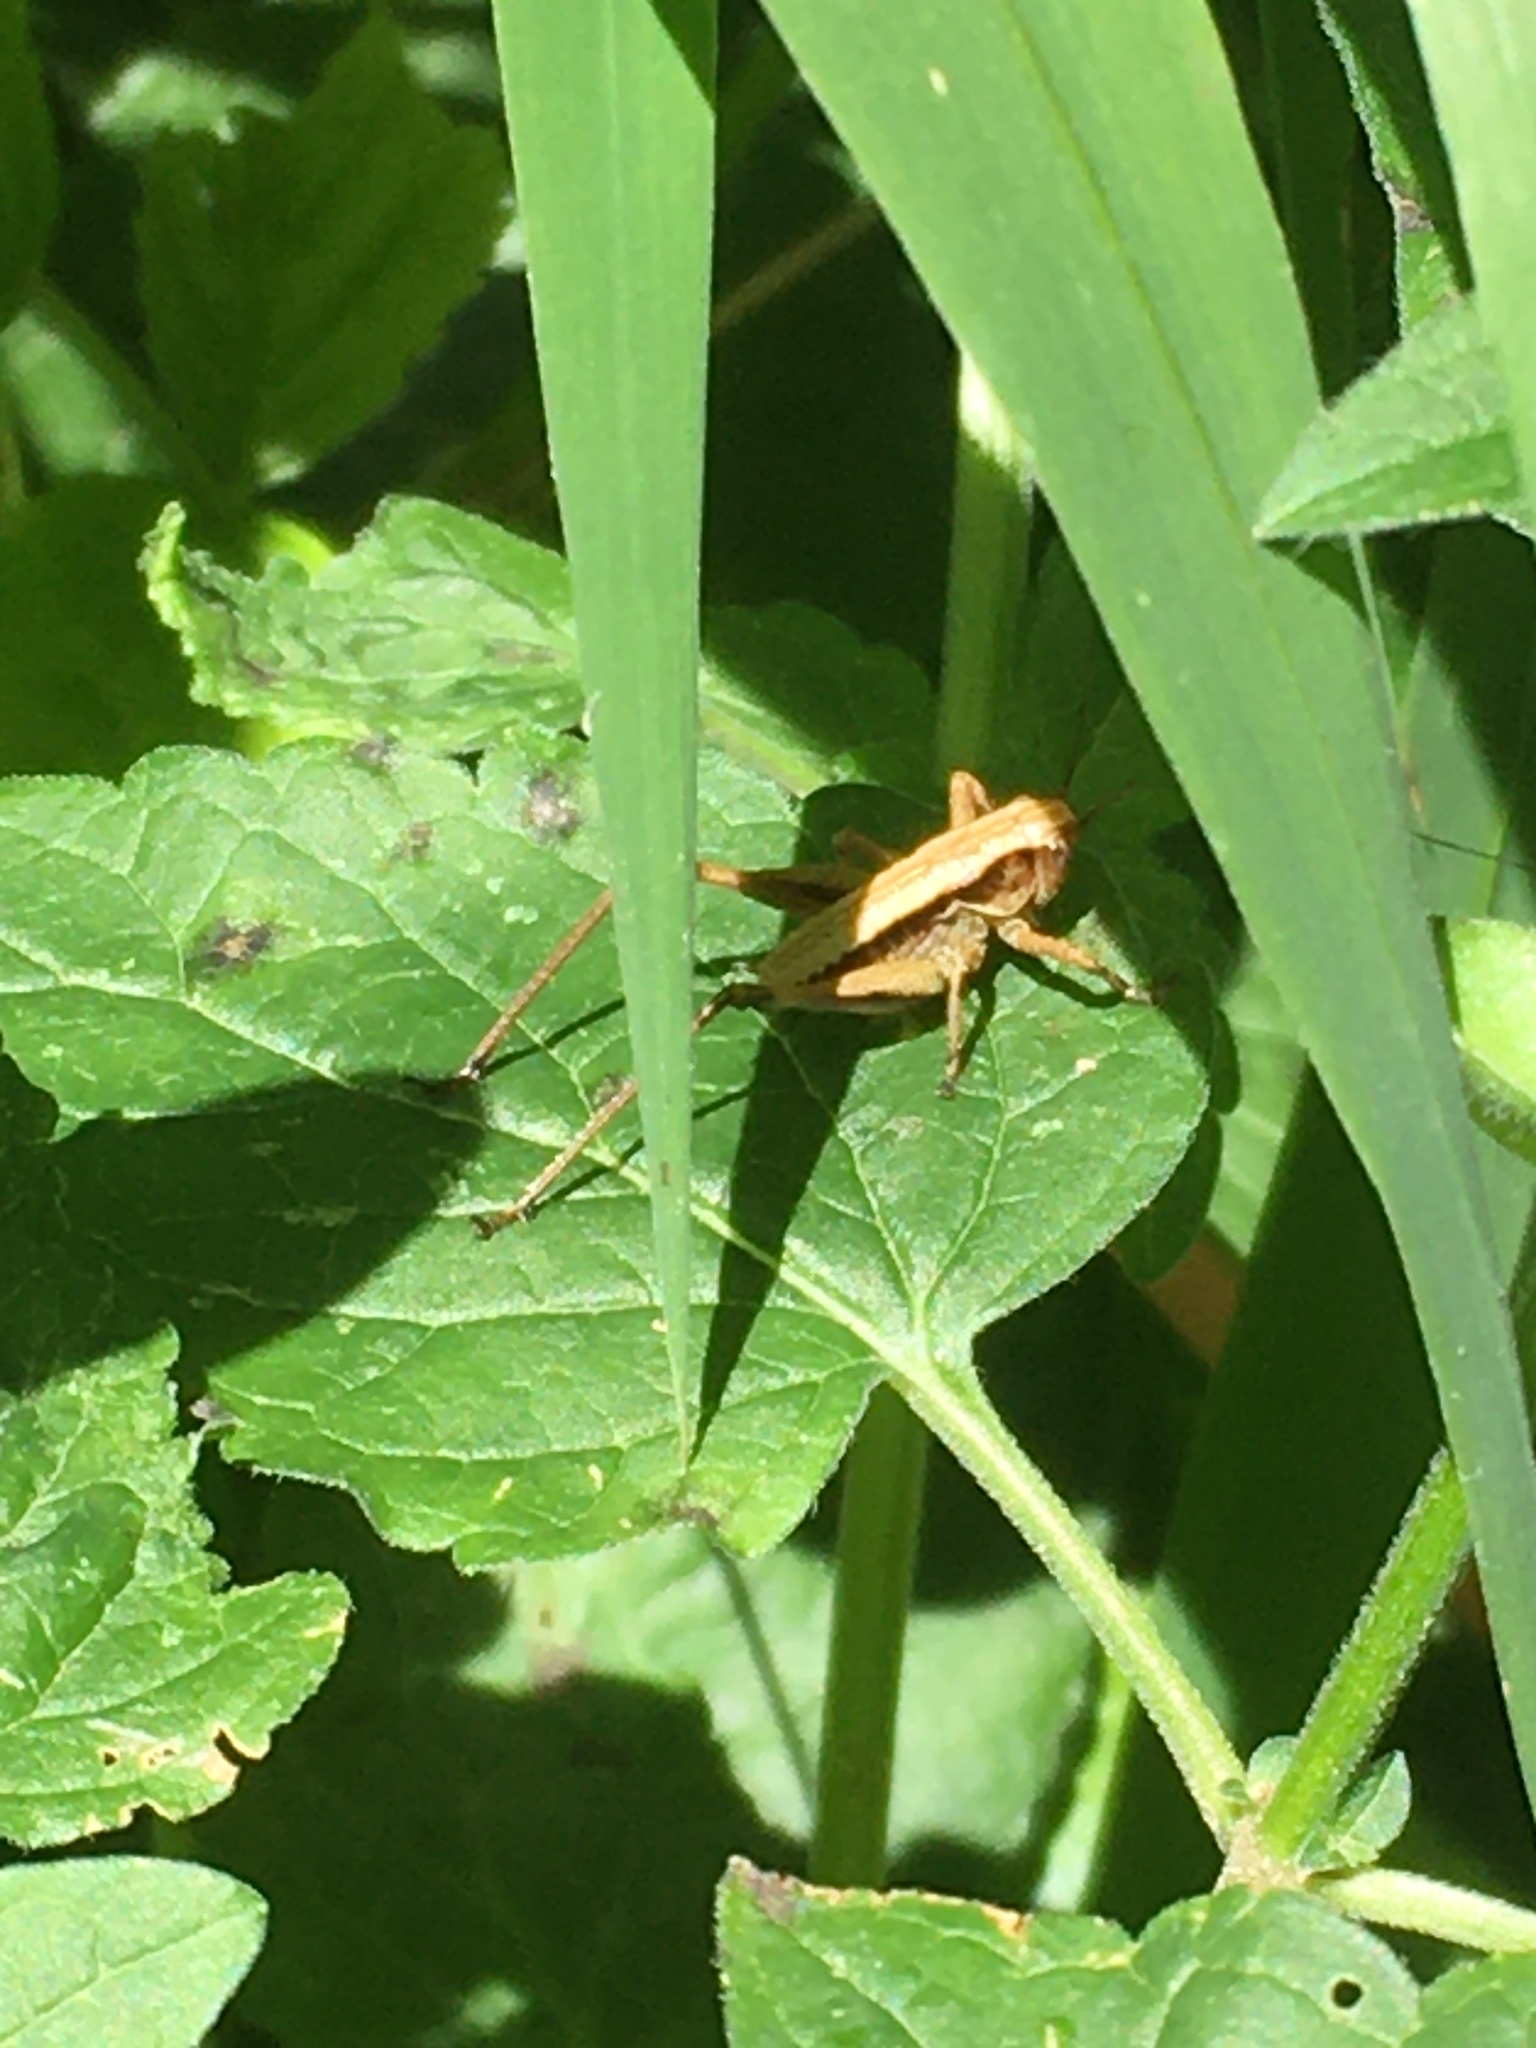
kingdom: Animalia
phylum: Arthropoda
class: Insecta
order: Orthoptera
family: Tettigoniidae
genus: Pholidoptera
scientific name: Pholidoptera griseoaptera
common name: Dark bush-cricket
